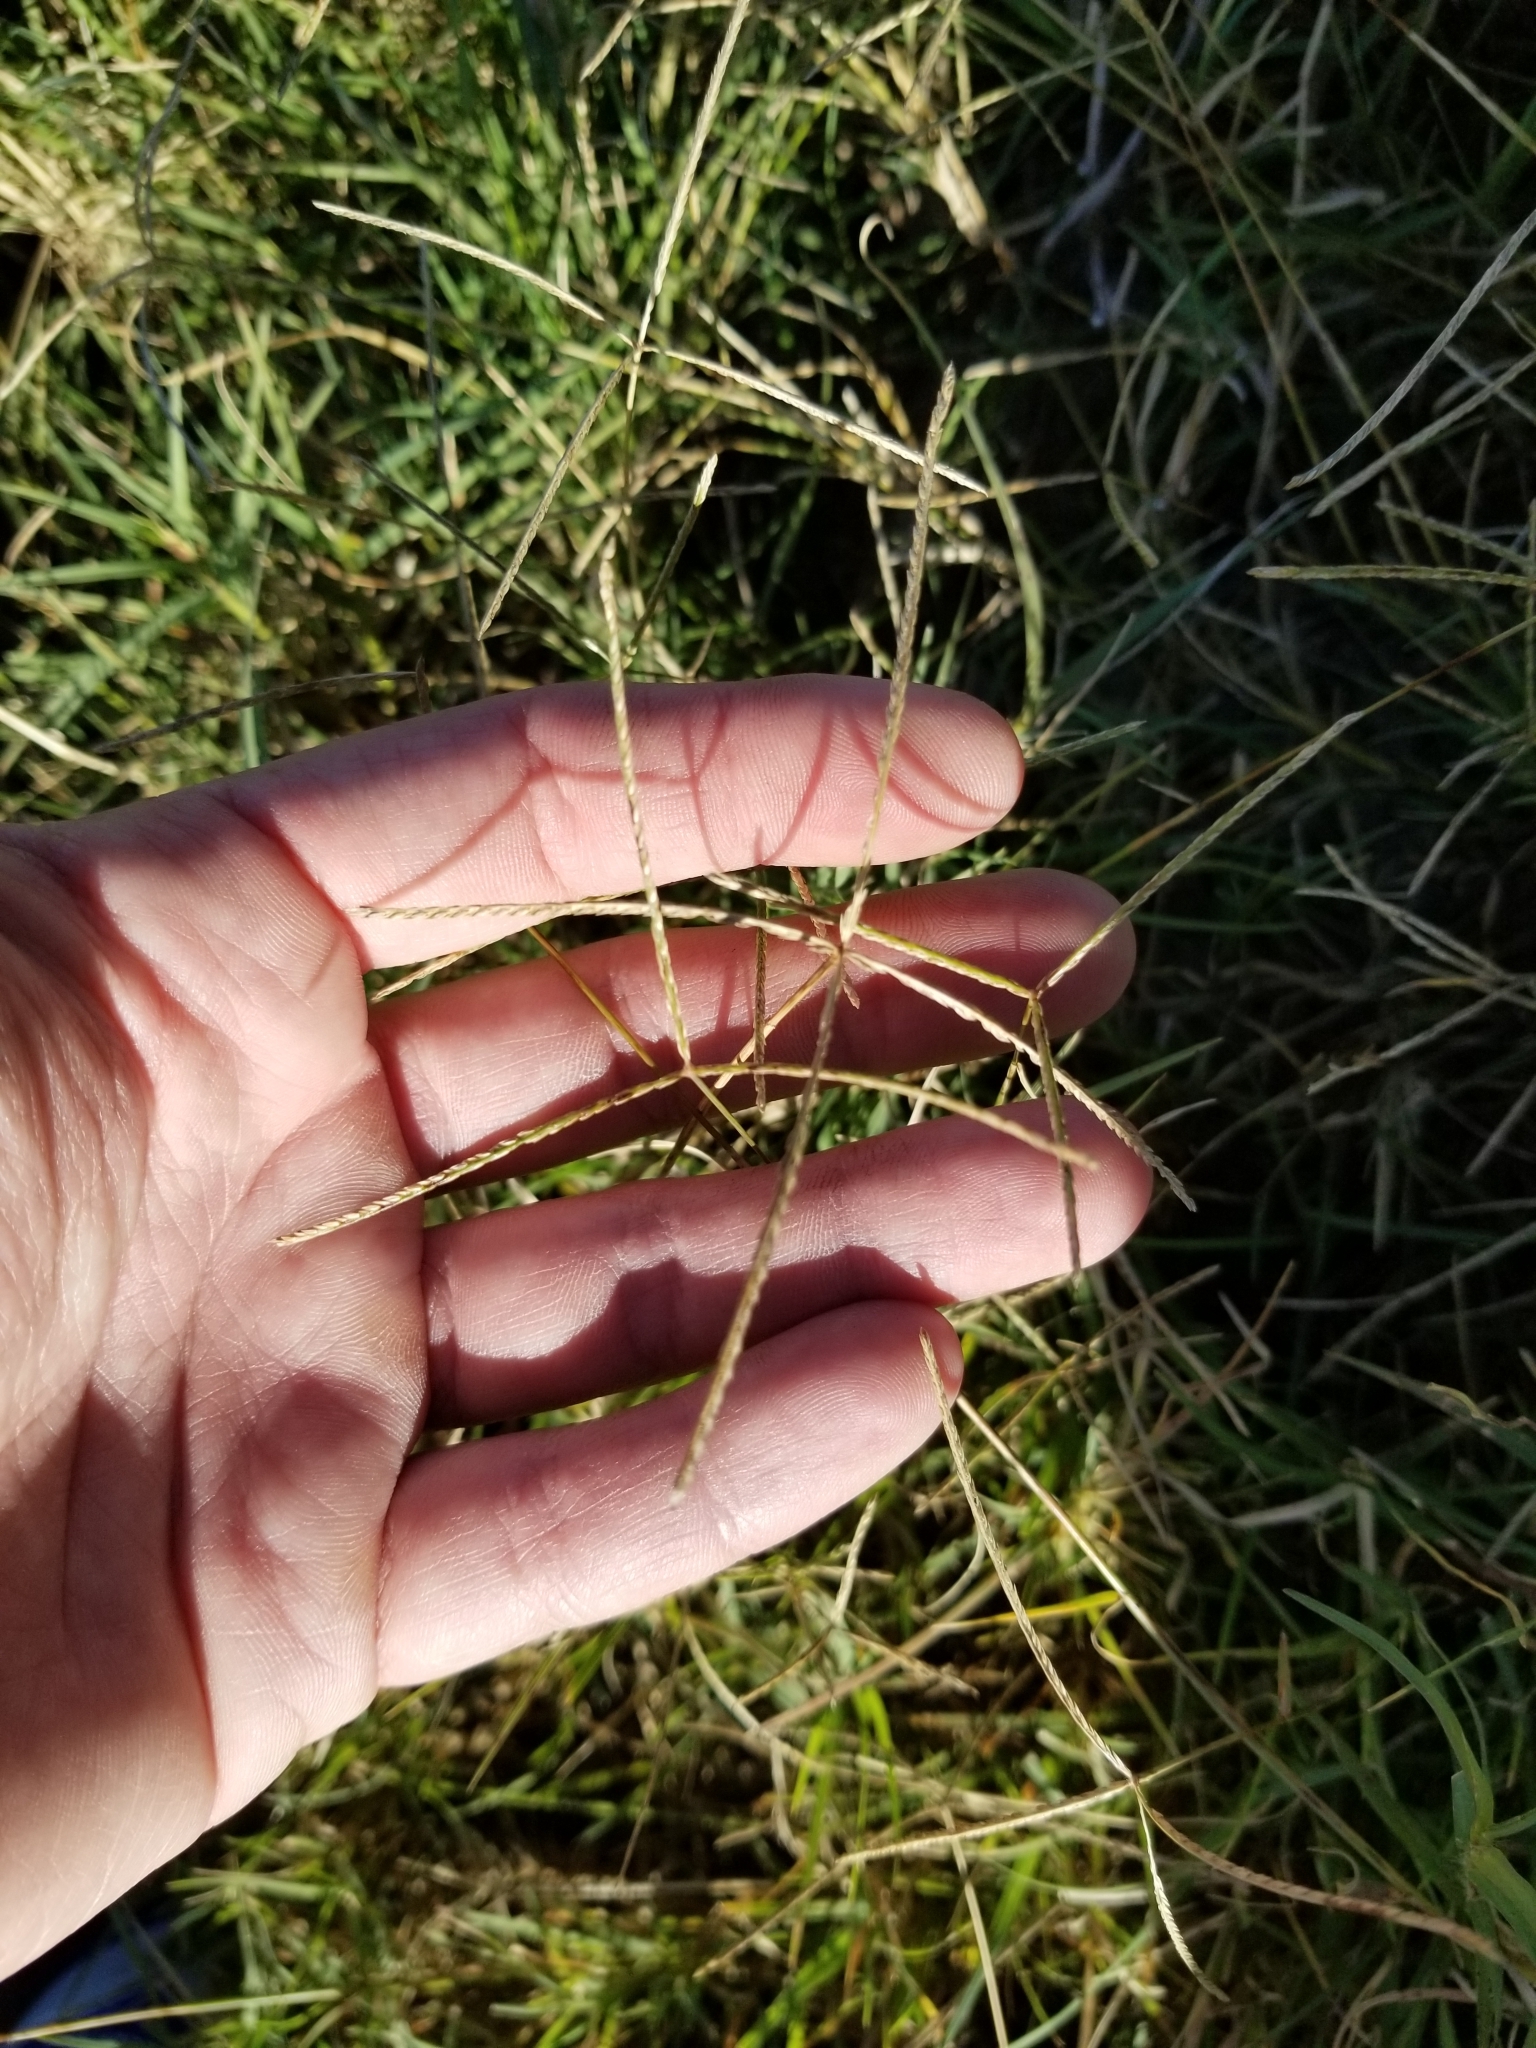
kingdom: Plantae
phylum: Tracheophyta
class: Liliopsida
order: Poales
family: Poaceae
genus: Cynodon
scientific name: Cynodon dactylon
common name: Bermuda grass
